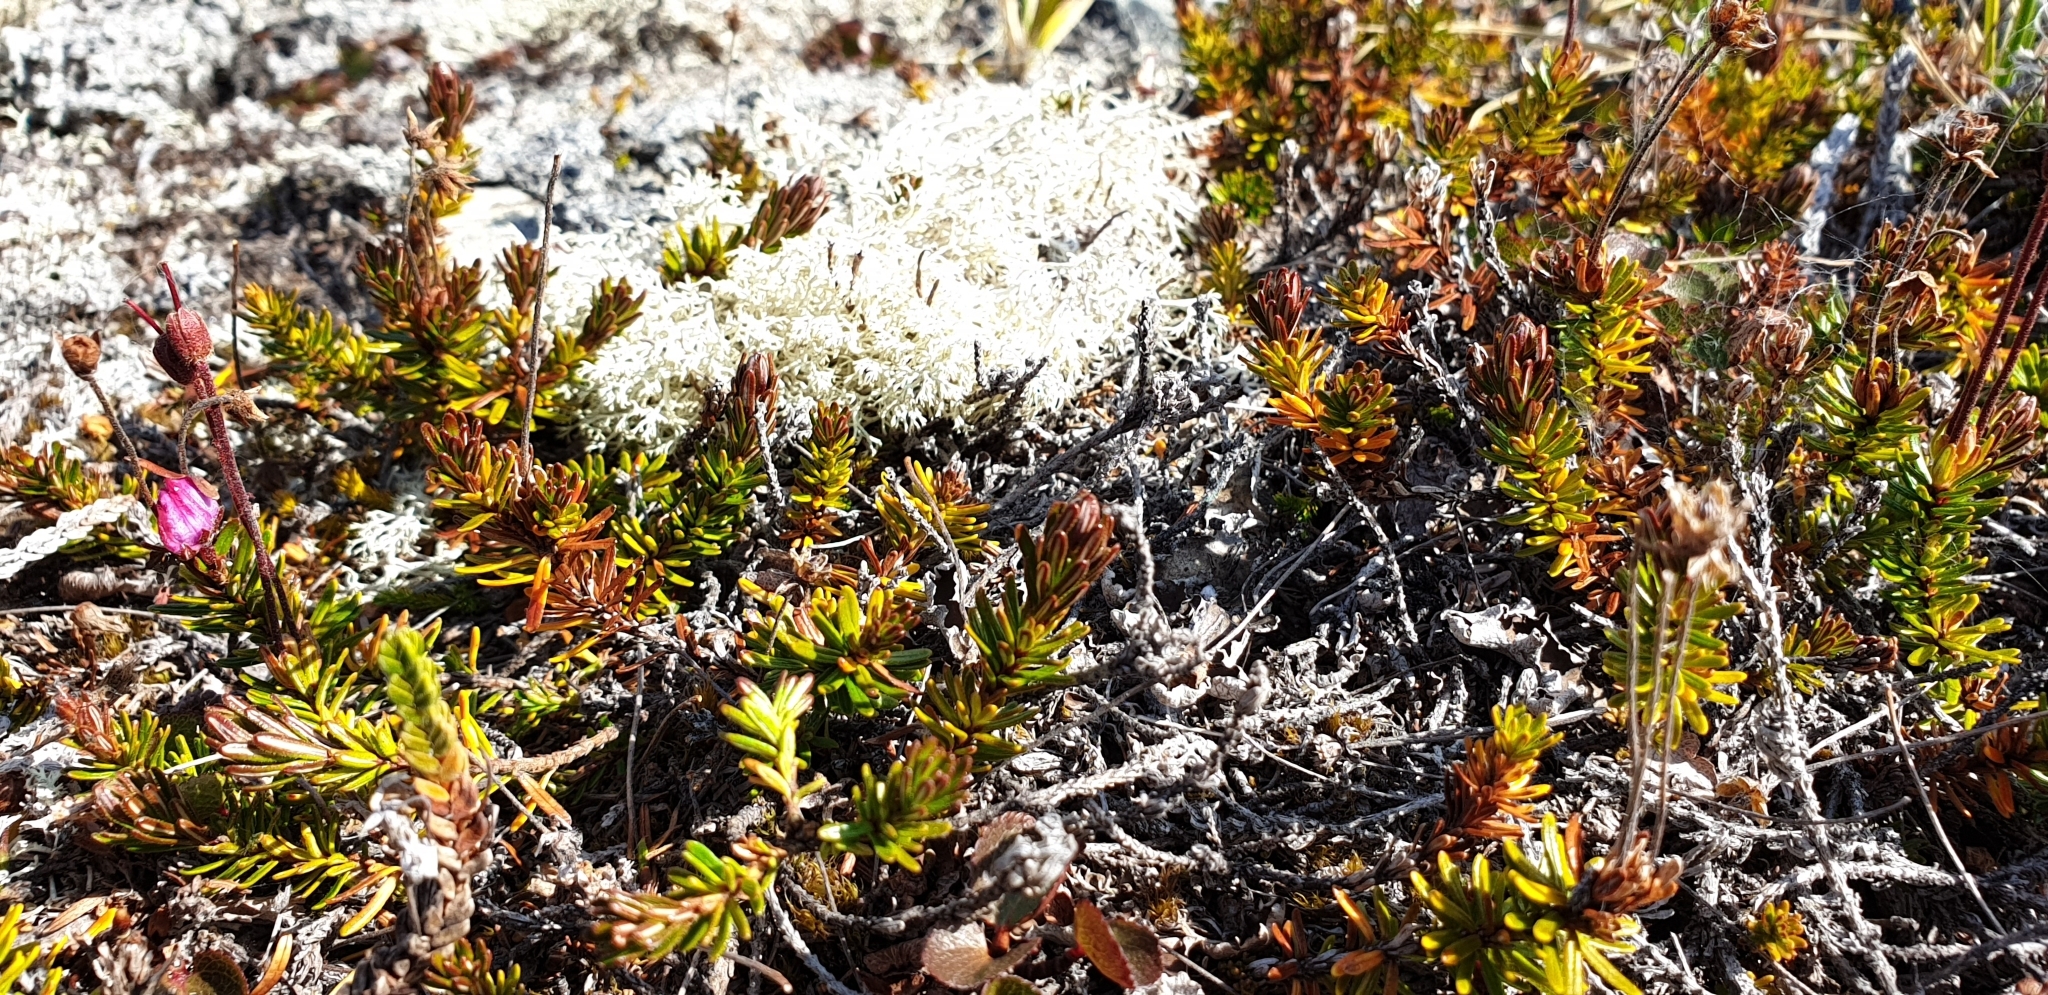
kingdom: Plantae
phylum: Tracheophyta
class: Magnoliopsida
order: Ericales
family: Ericaceae
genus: Phyllodoce
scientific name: Phyllodoce caerulea
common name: Blue heath
